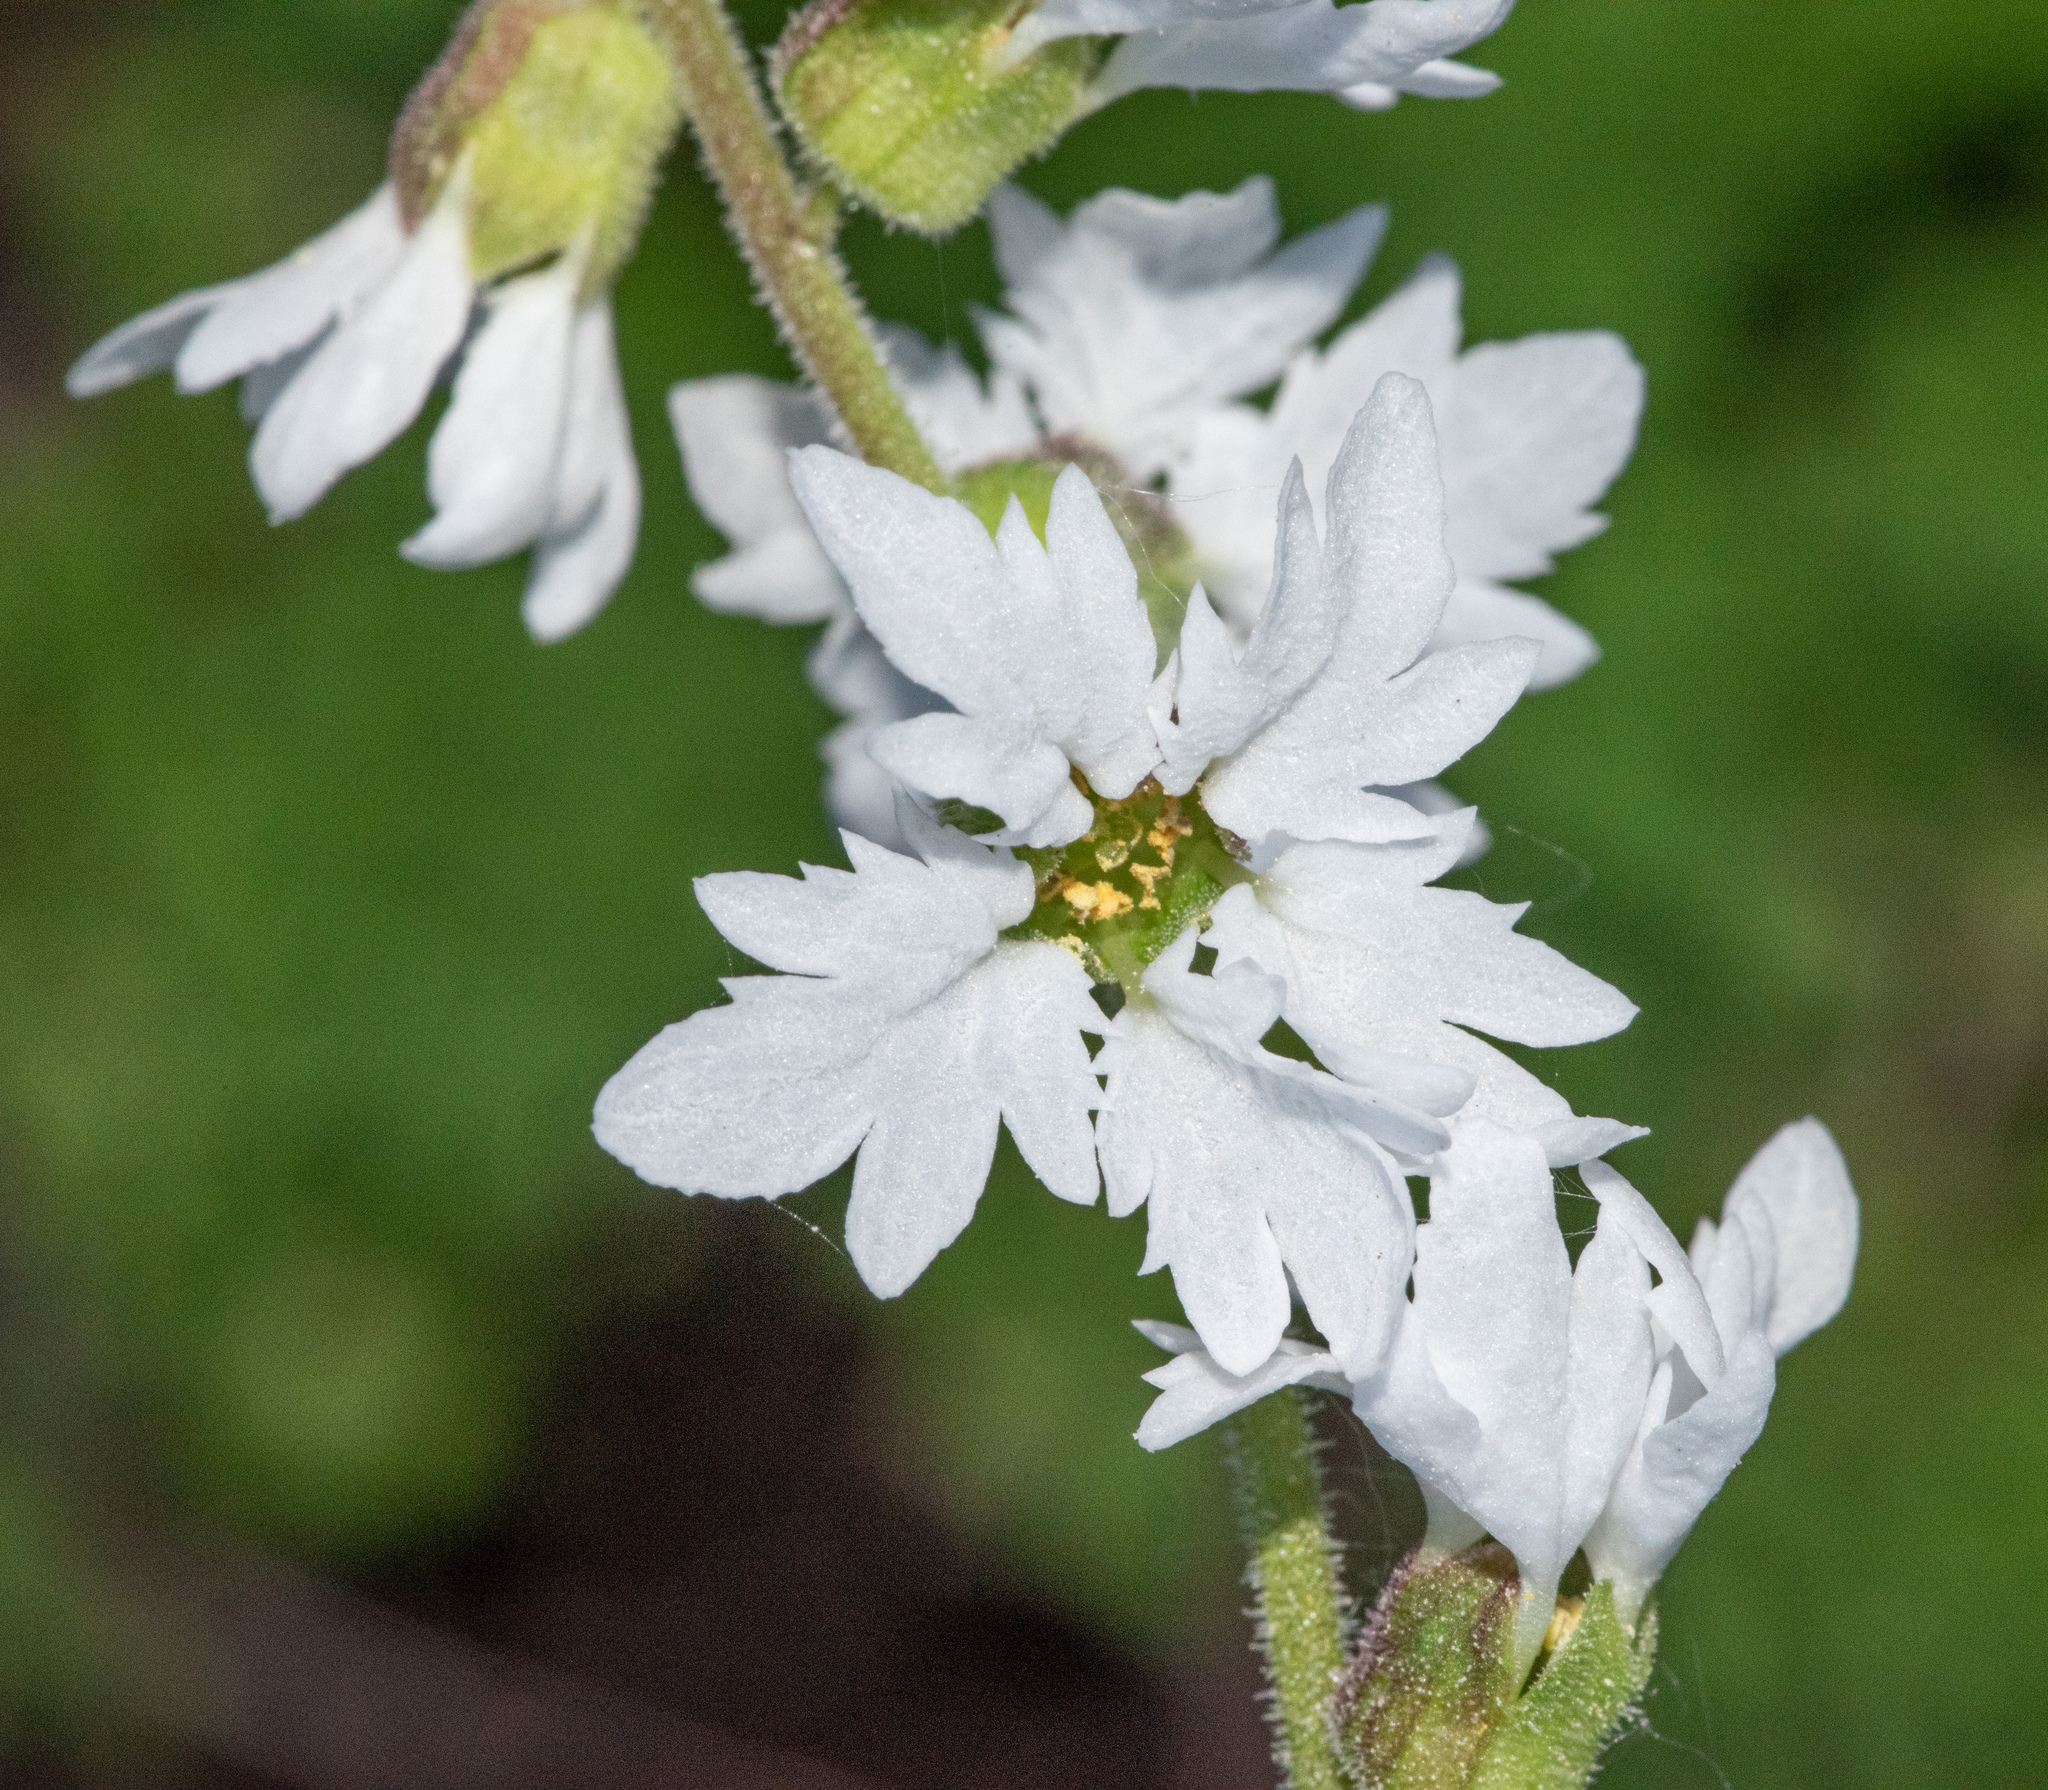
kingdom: Plantae
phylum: Tracheophyta
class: Magnoliopsida
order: Saxifragales
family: Saxifragaceae
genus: Lithophragma
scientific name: Lithophragma heterophyllum
